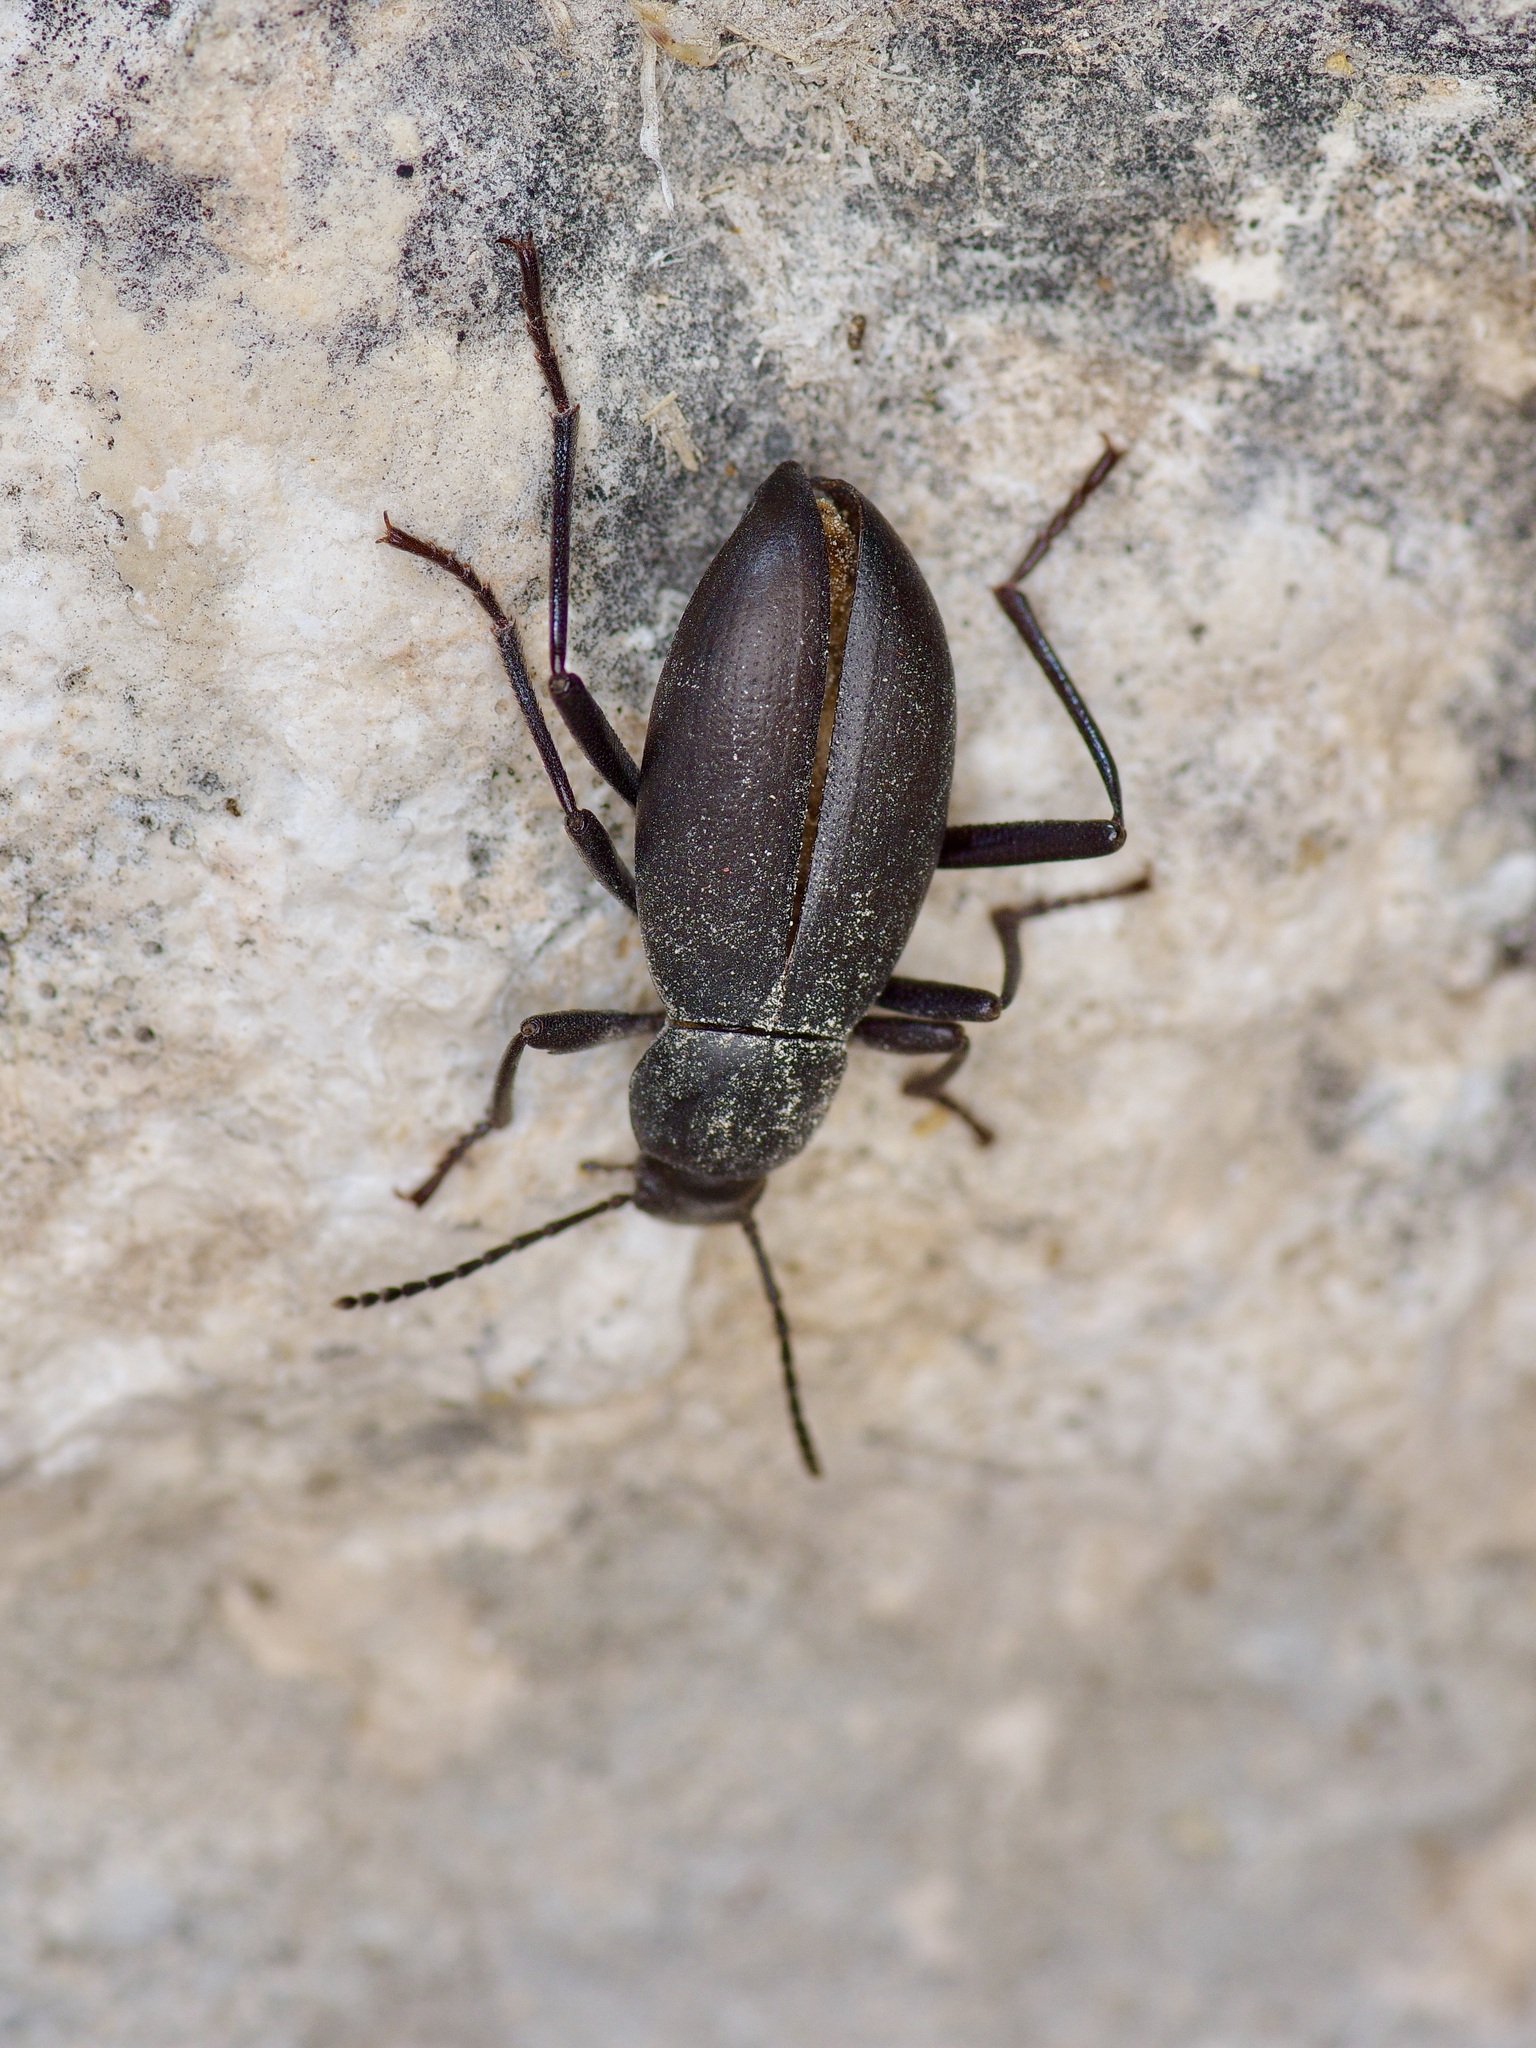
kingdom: Animalia
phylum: Arthropoda
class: Insecta
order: Coleoptera
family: Tenebrionidae
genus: Eleodes
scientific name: Eleodes knullorum
